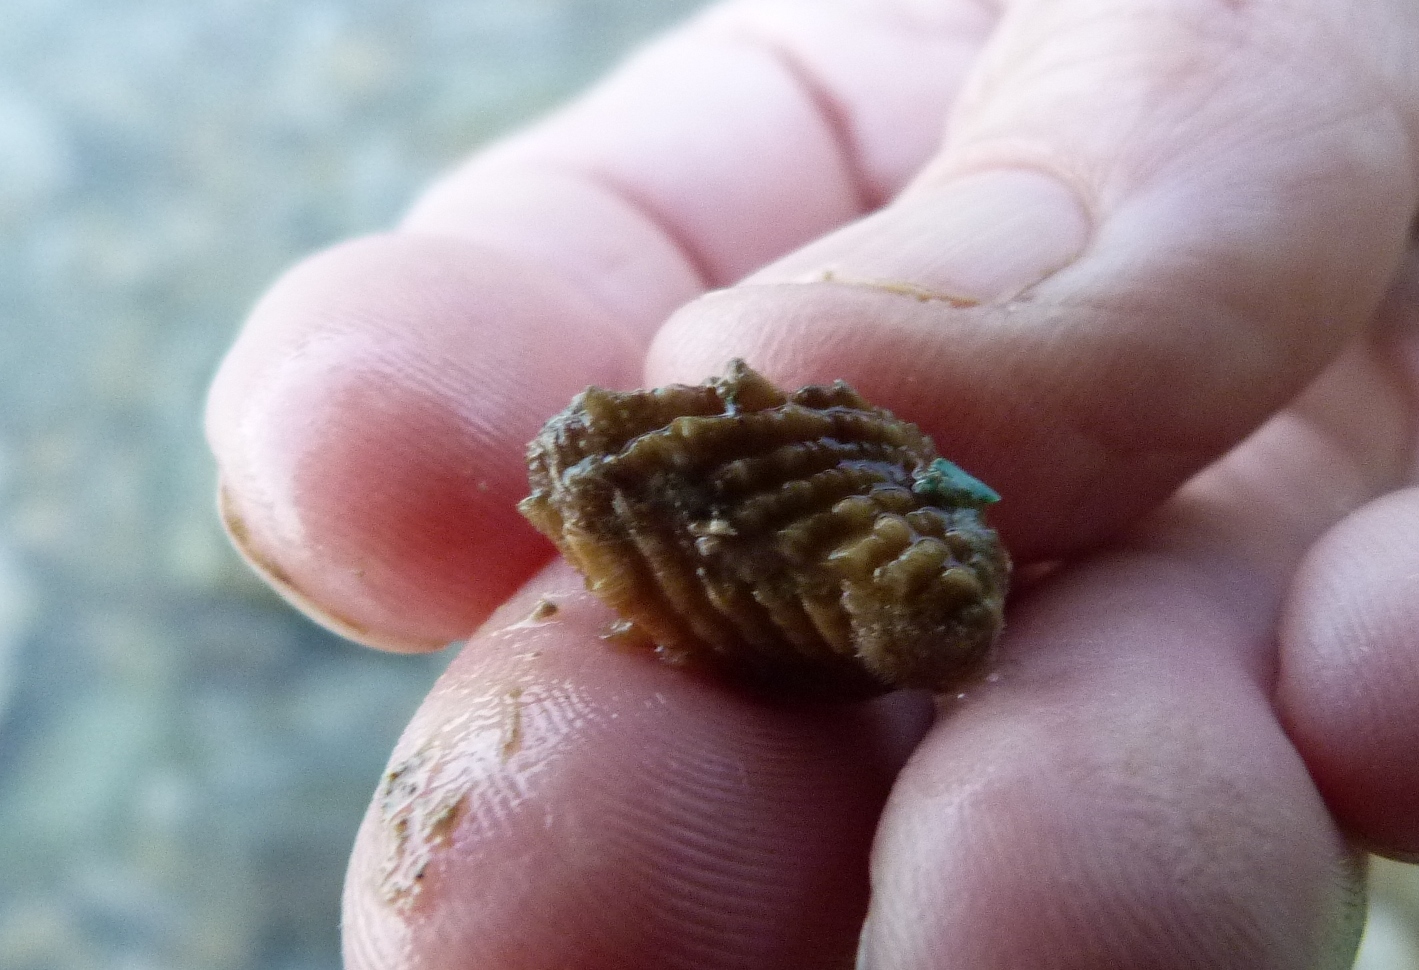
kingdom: Animalia
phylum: Mollusca
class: Bivalvia
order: Carditida
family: Carditidae
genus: Cardita
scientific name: Cardita distorta
